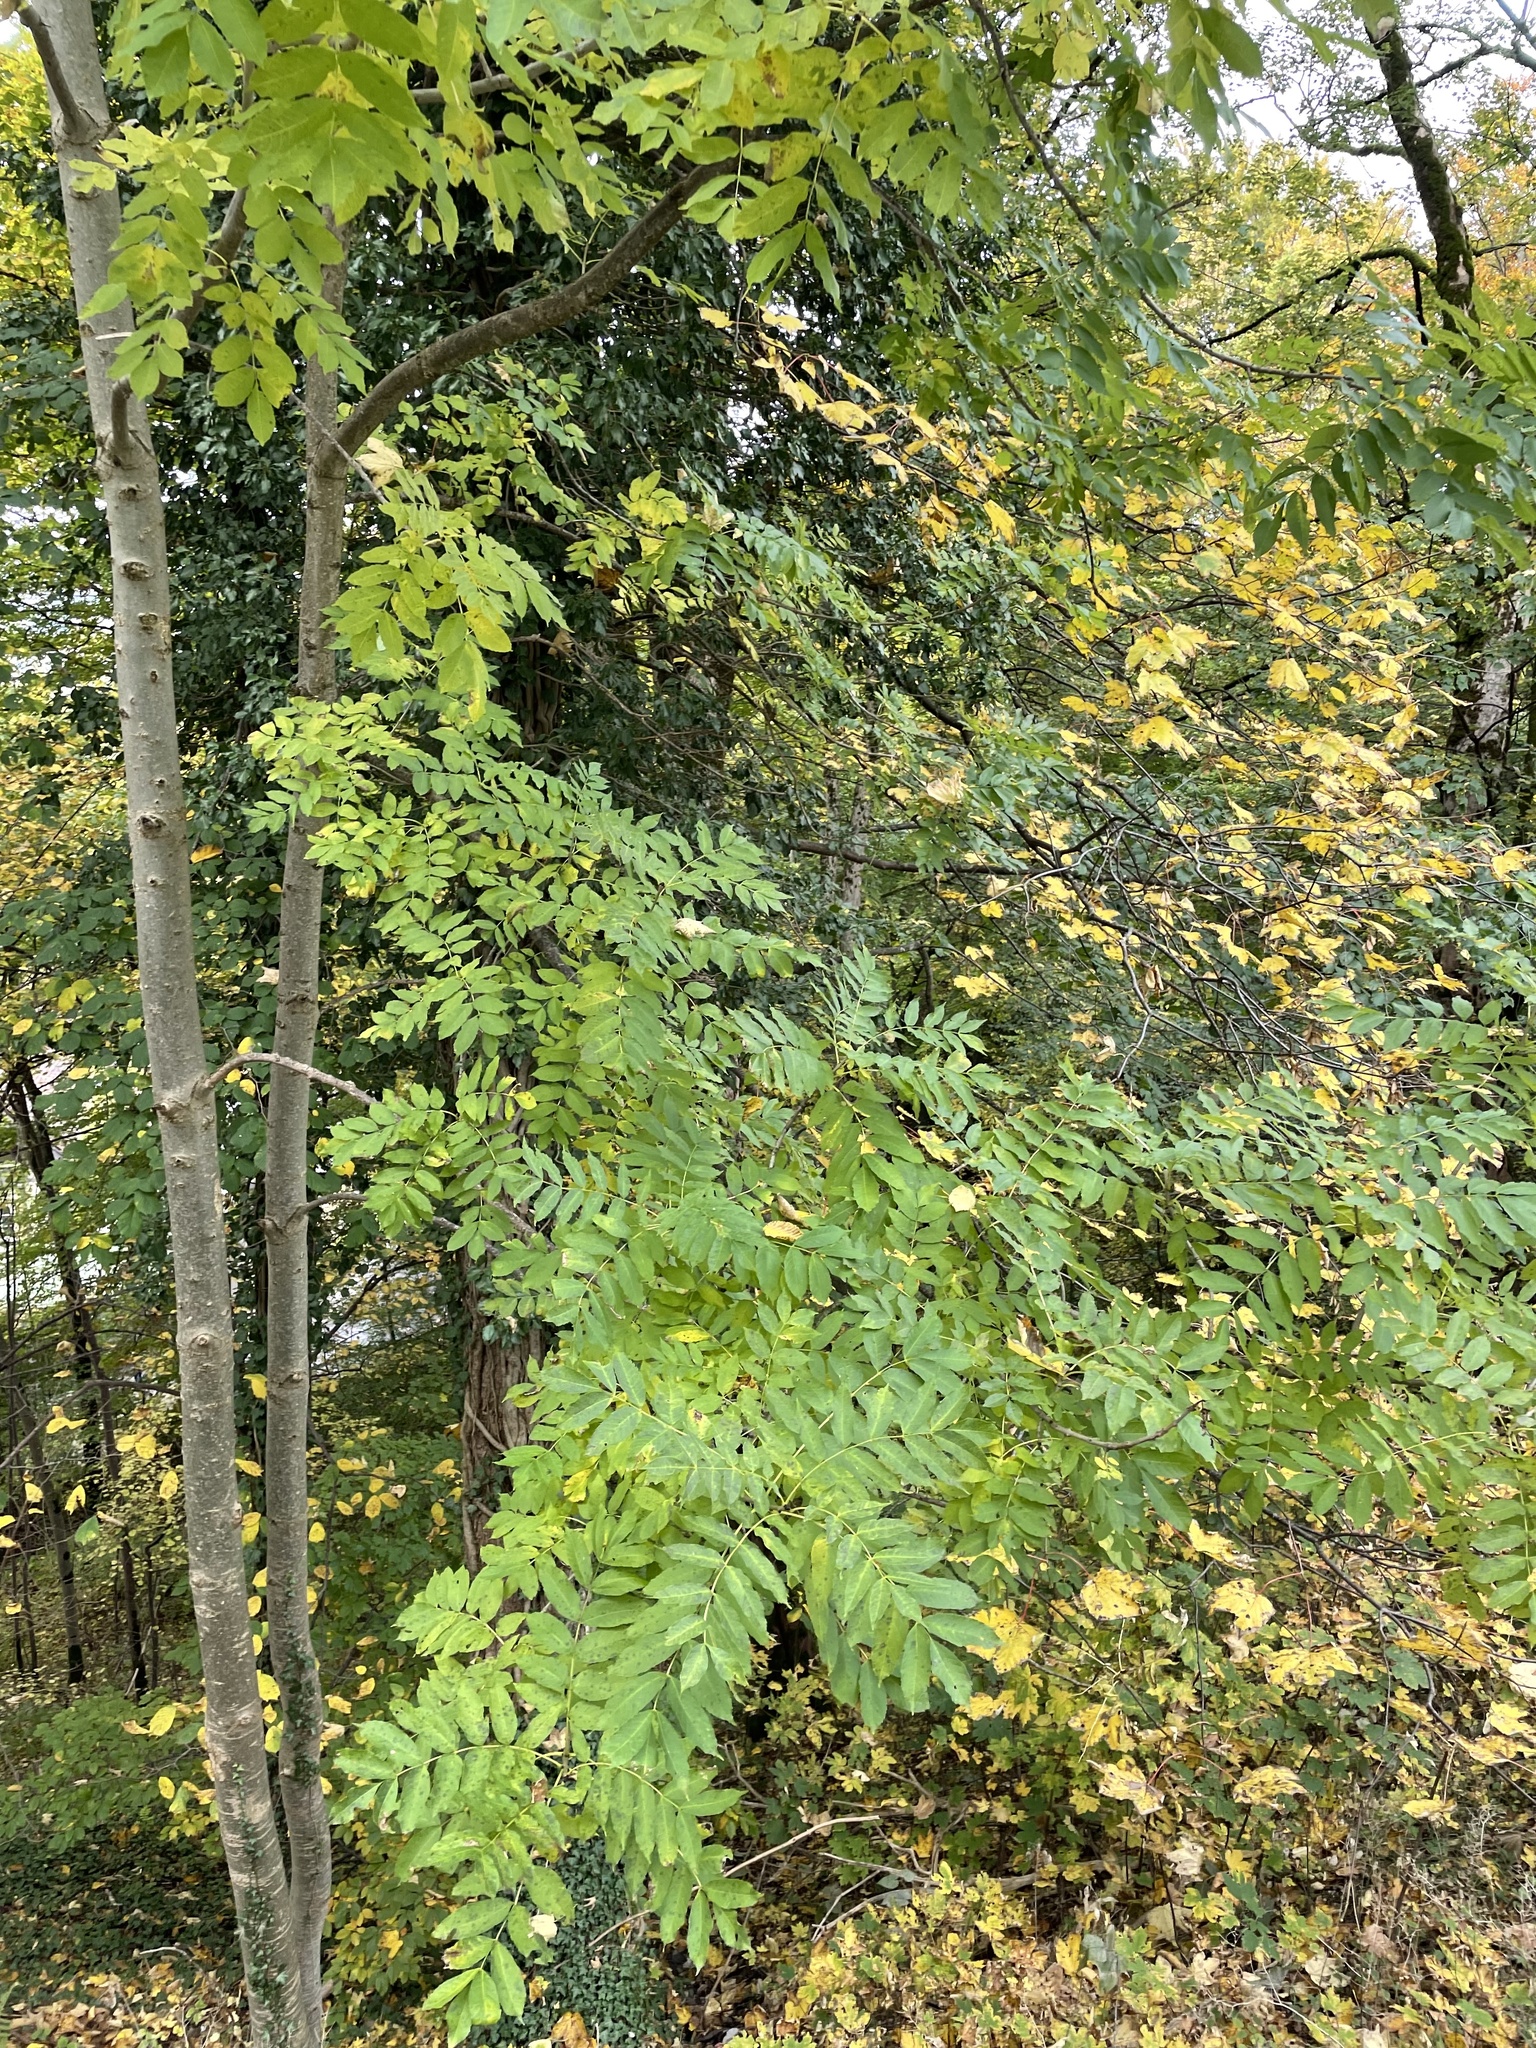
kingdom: Plantae
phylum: Tracheophyta
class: Magnoliopsida
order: Lamiales
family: Oleaceae
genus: Fraxinus
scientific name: Fraxinus excelsior
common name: European ash
